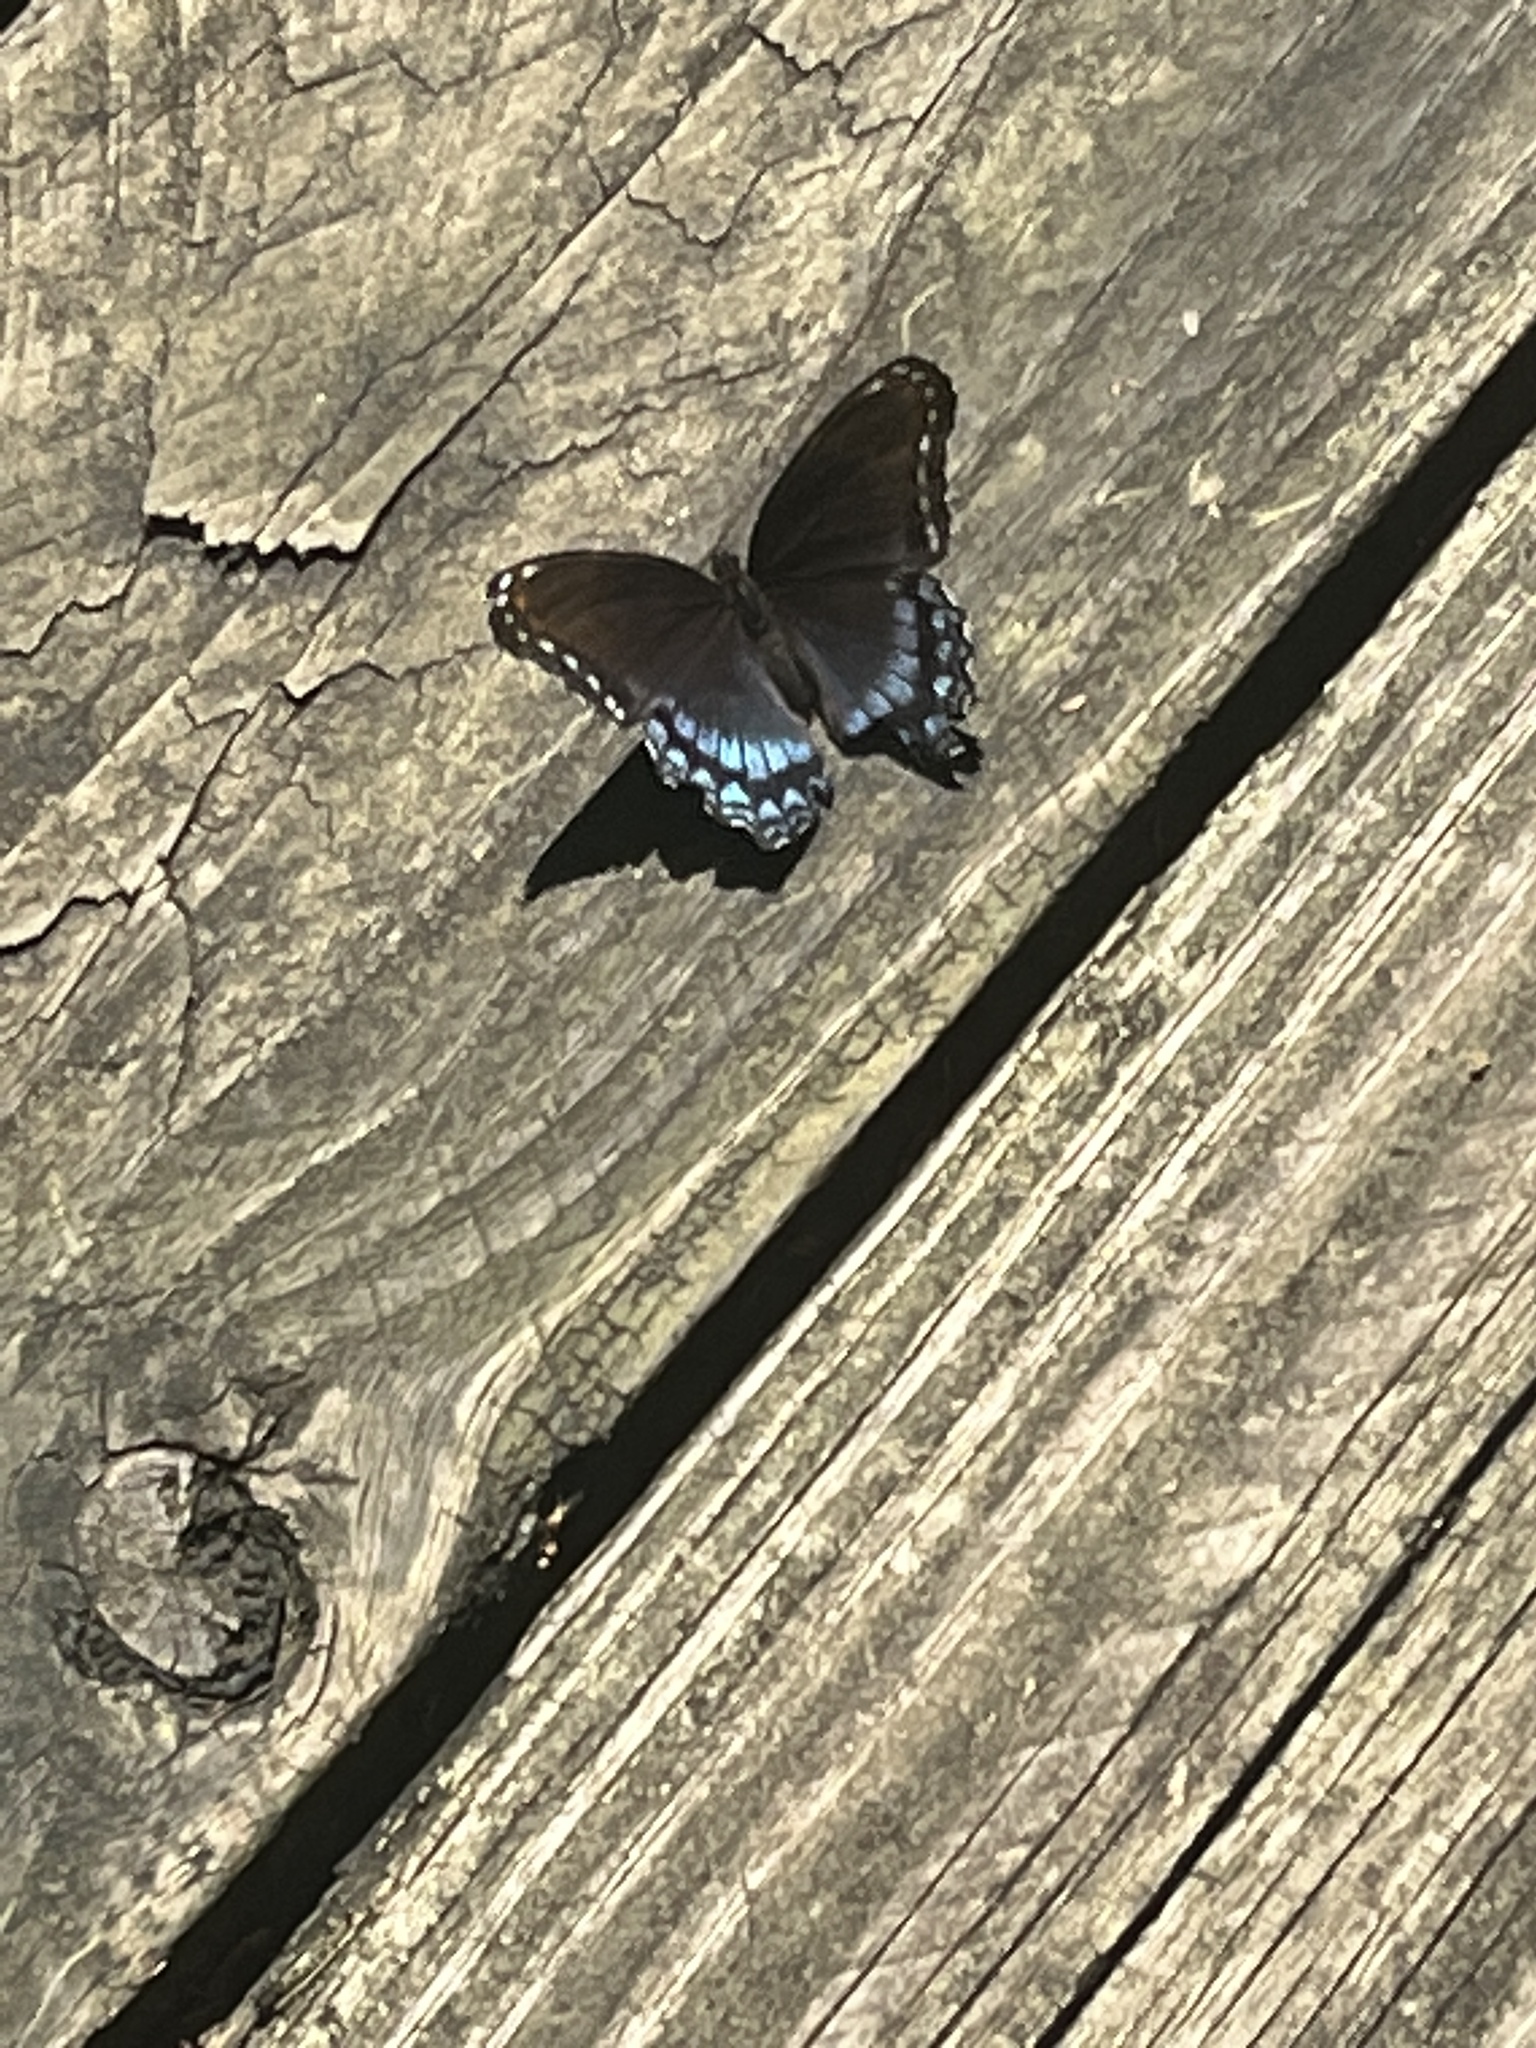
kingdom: Animalia
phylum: Arthropoda
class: Insecta
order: Lepidoptera
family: Nymphalidae
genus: Limenitis
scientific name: Limenitis astyanax
